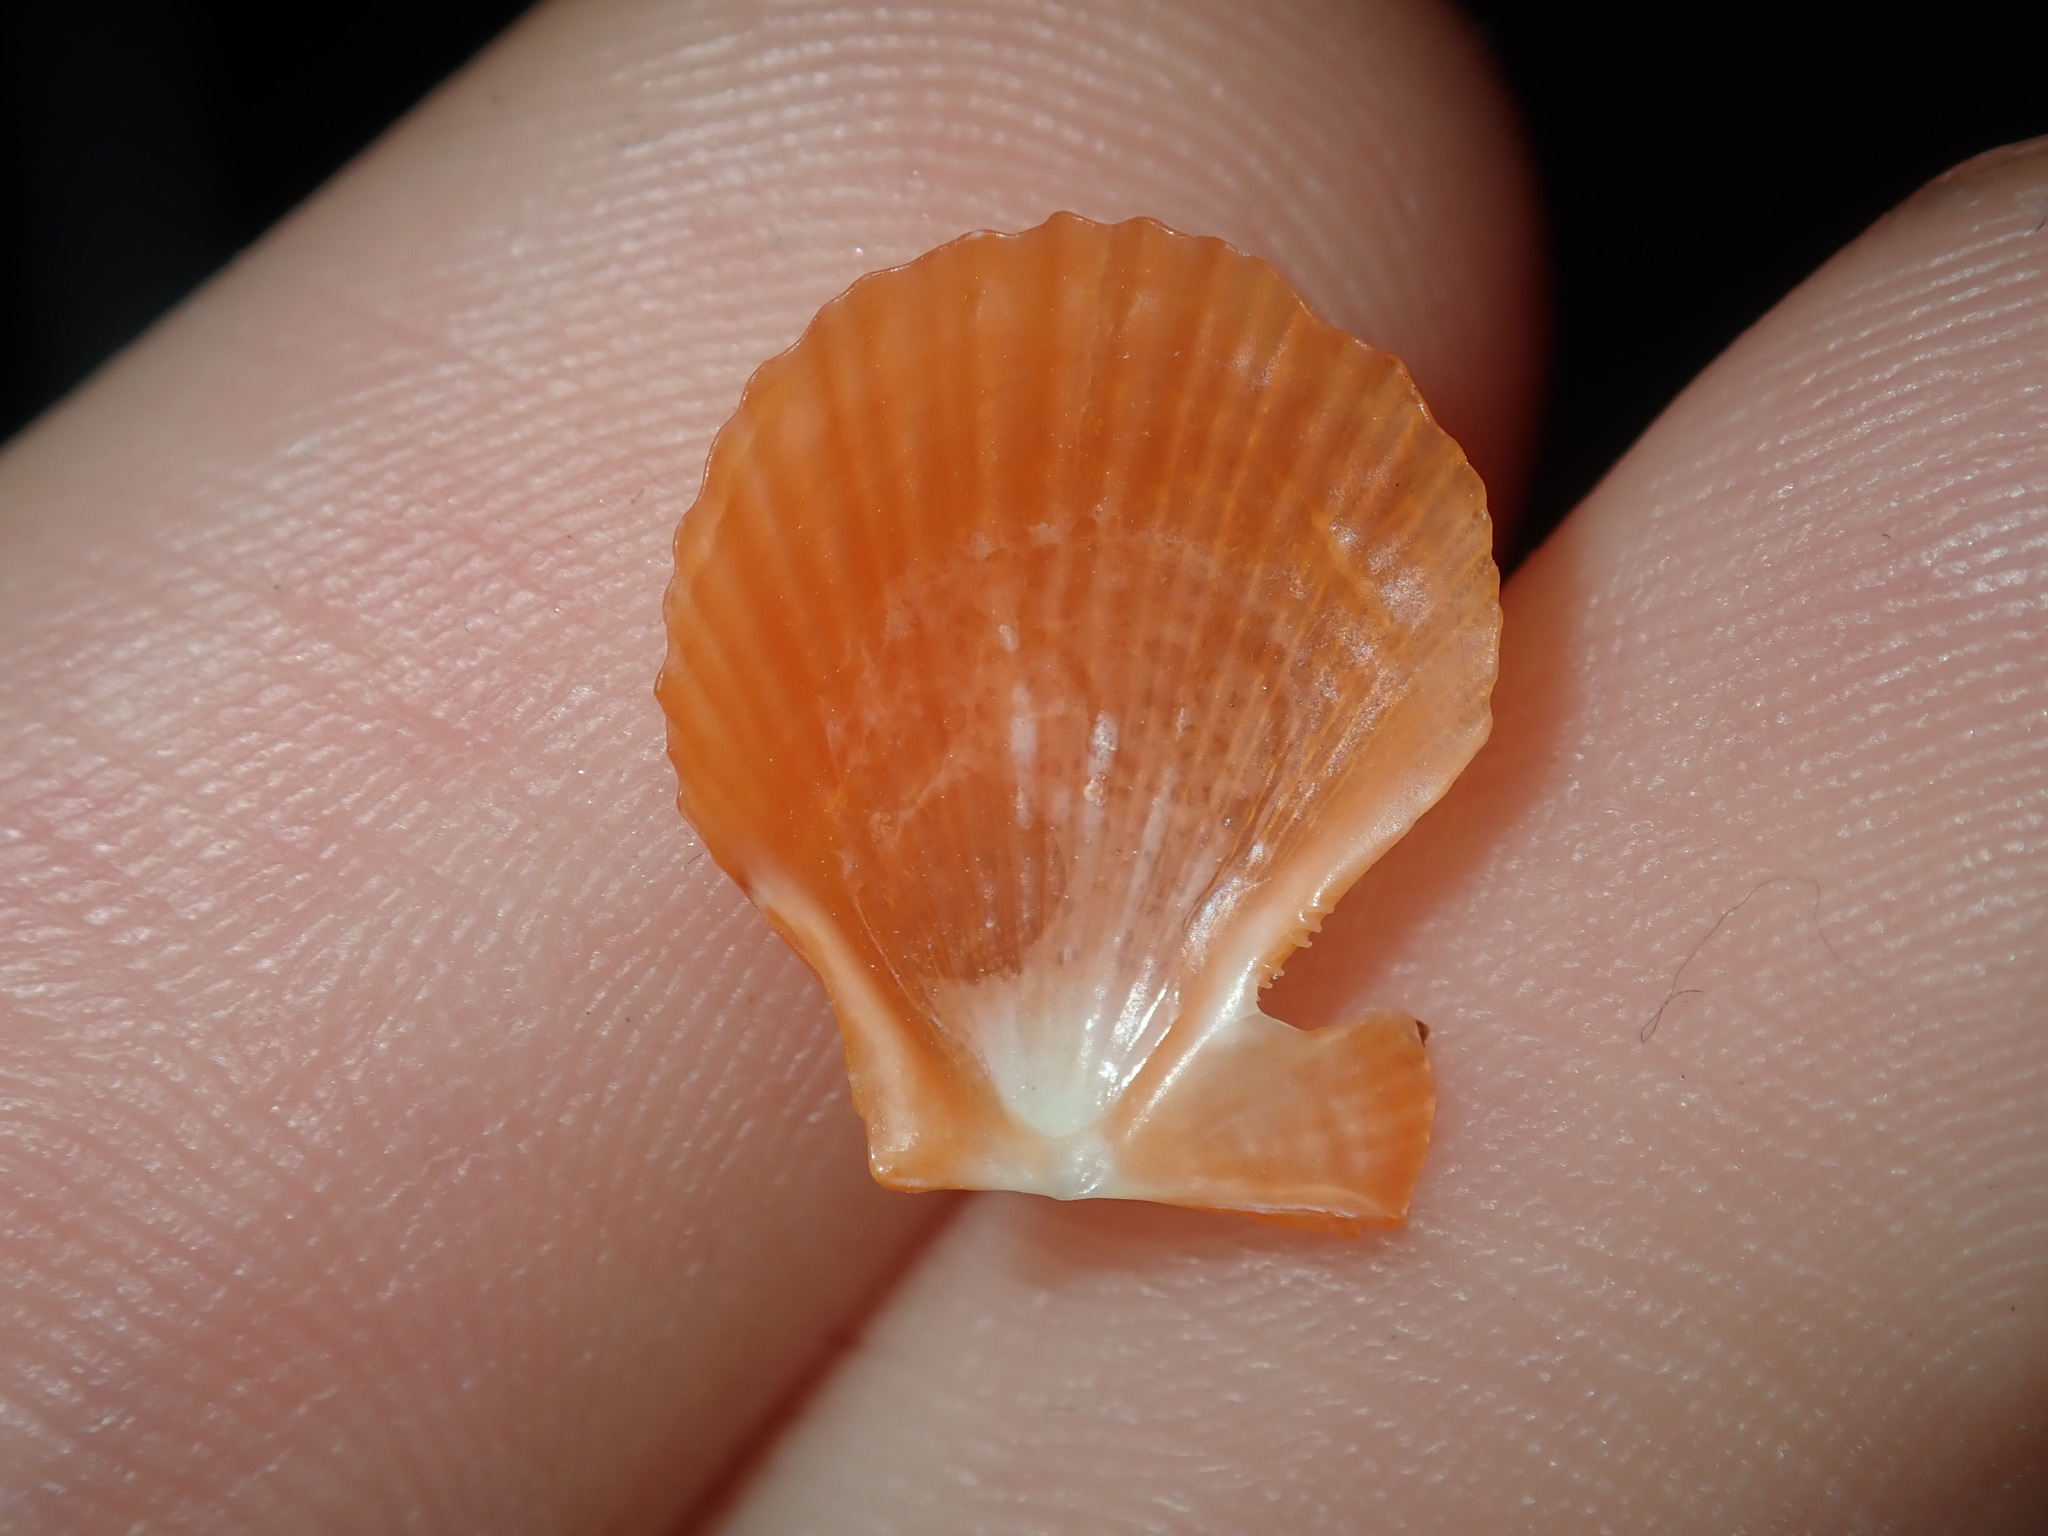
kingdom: Animalia
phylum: Mollusca
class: Bivalvia
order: Pectinida
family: Pectinidae
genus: Scaeochlamys
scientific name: Scaeochlamys livida
